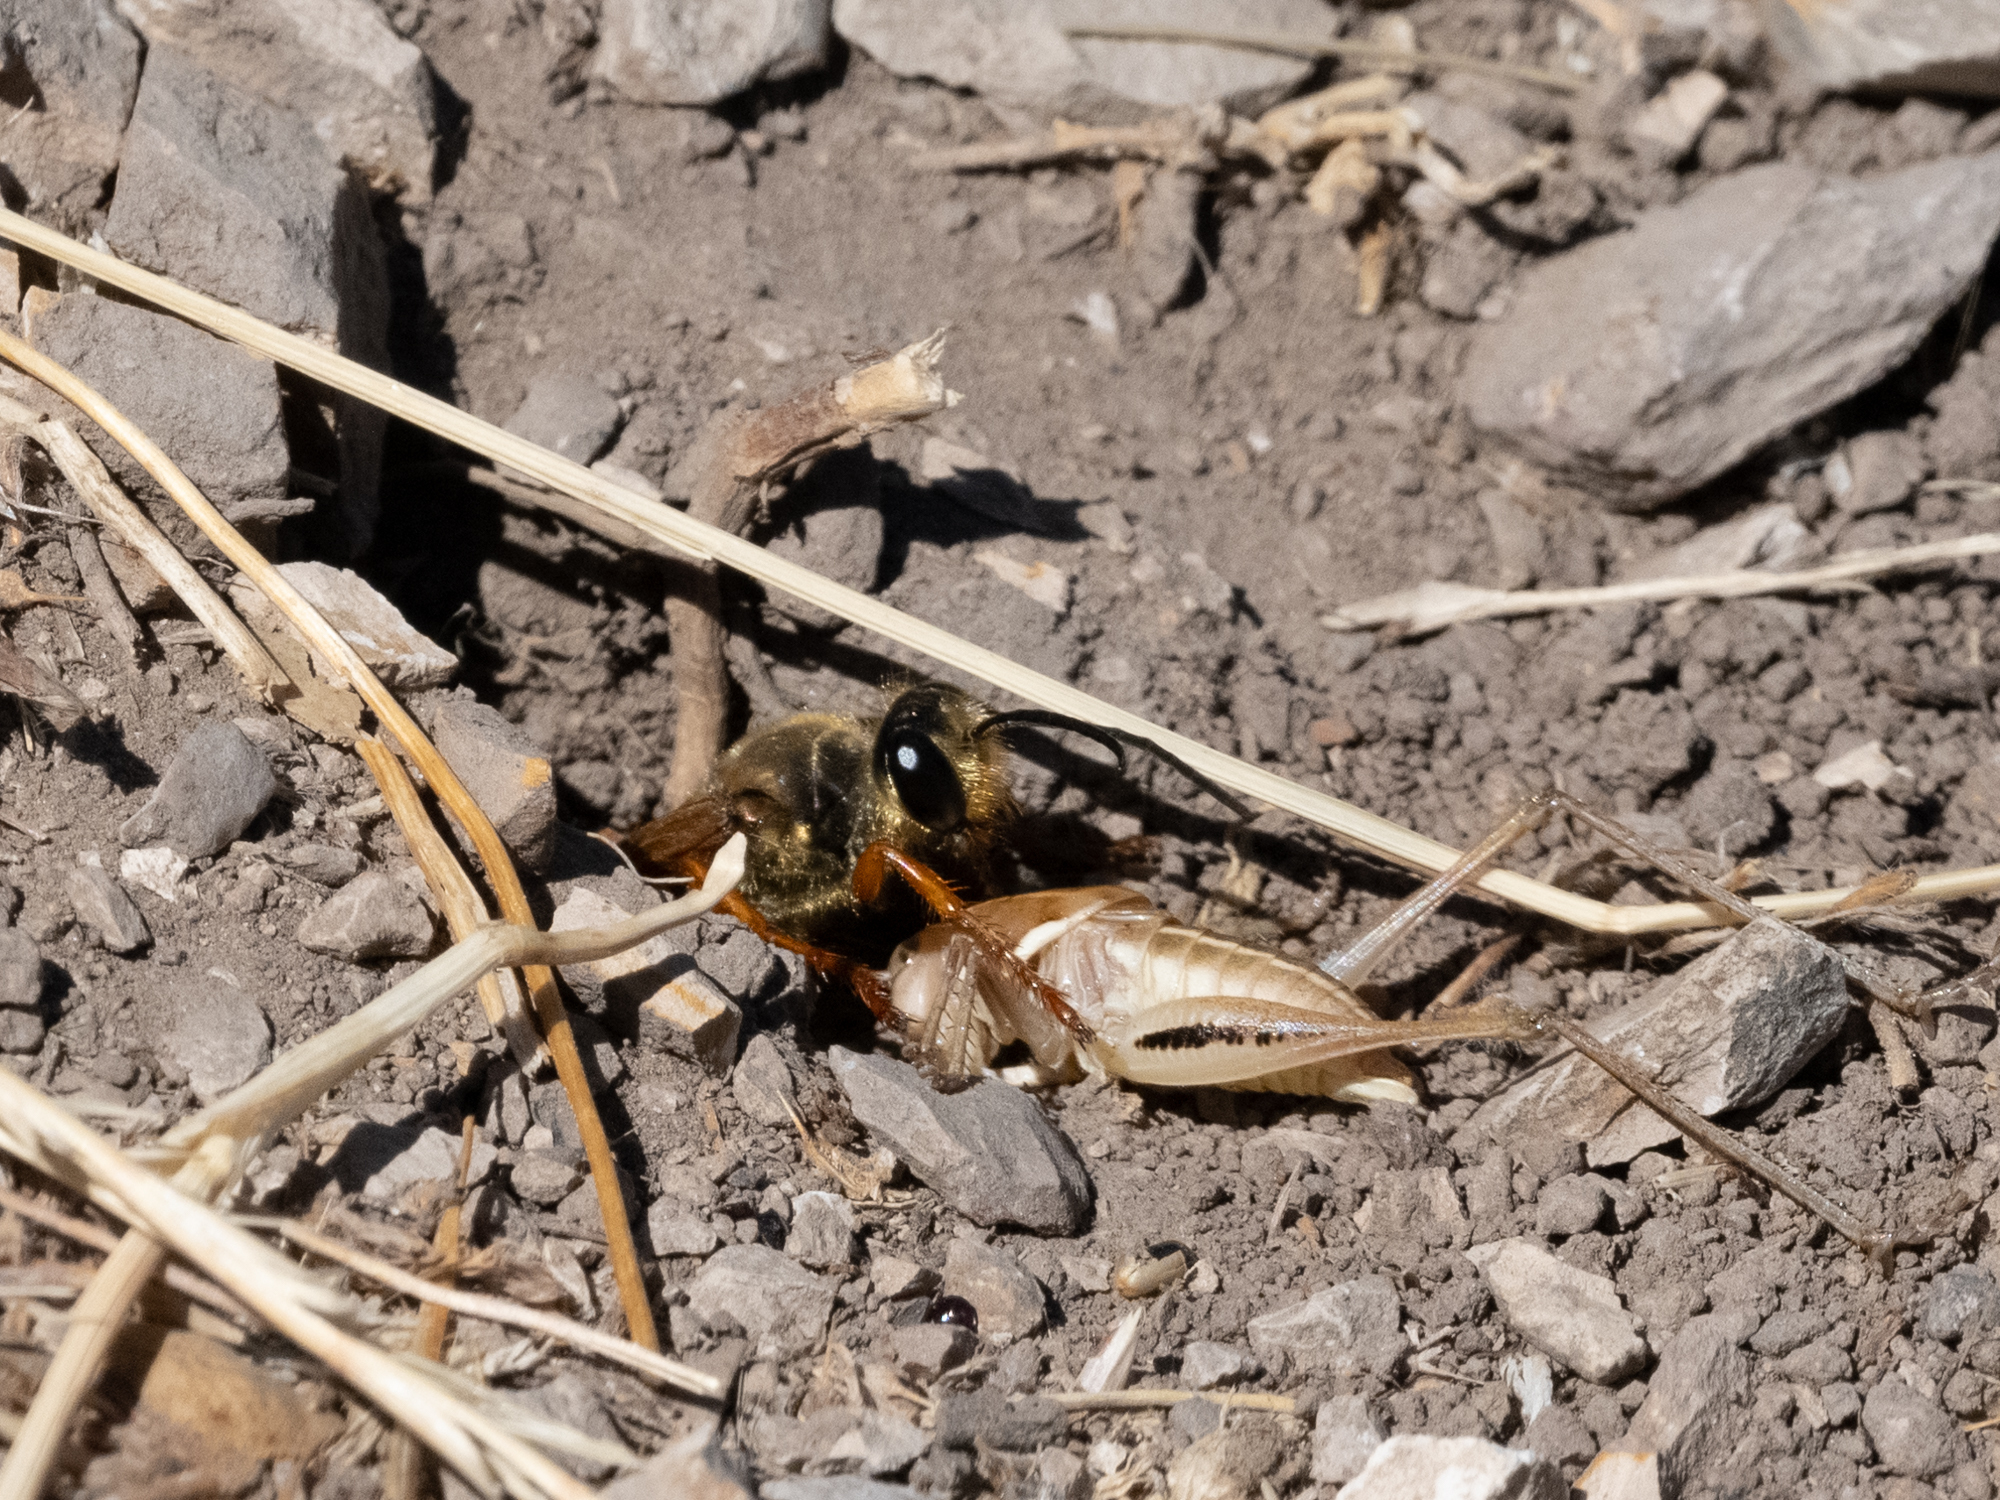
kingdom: Animalia
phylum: Arthropoda
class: Insecta
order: Hymenoptera
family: Sphecidae
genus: Sphex
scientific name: Sphex ichneumoneus
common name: Great golden digger wasp
